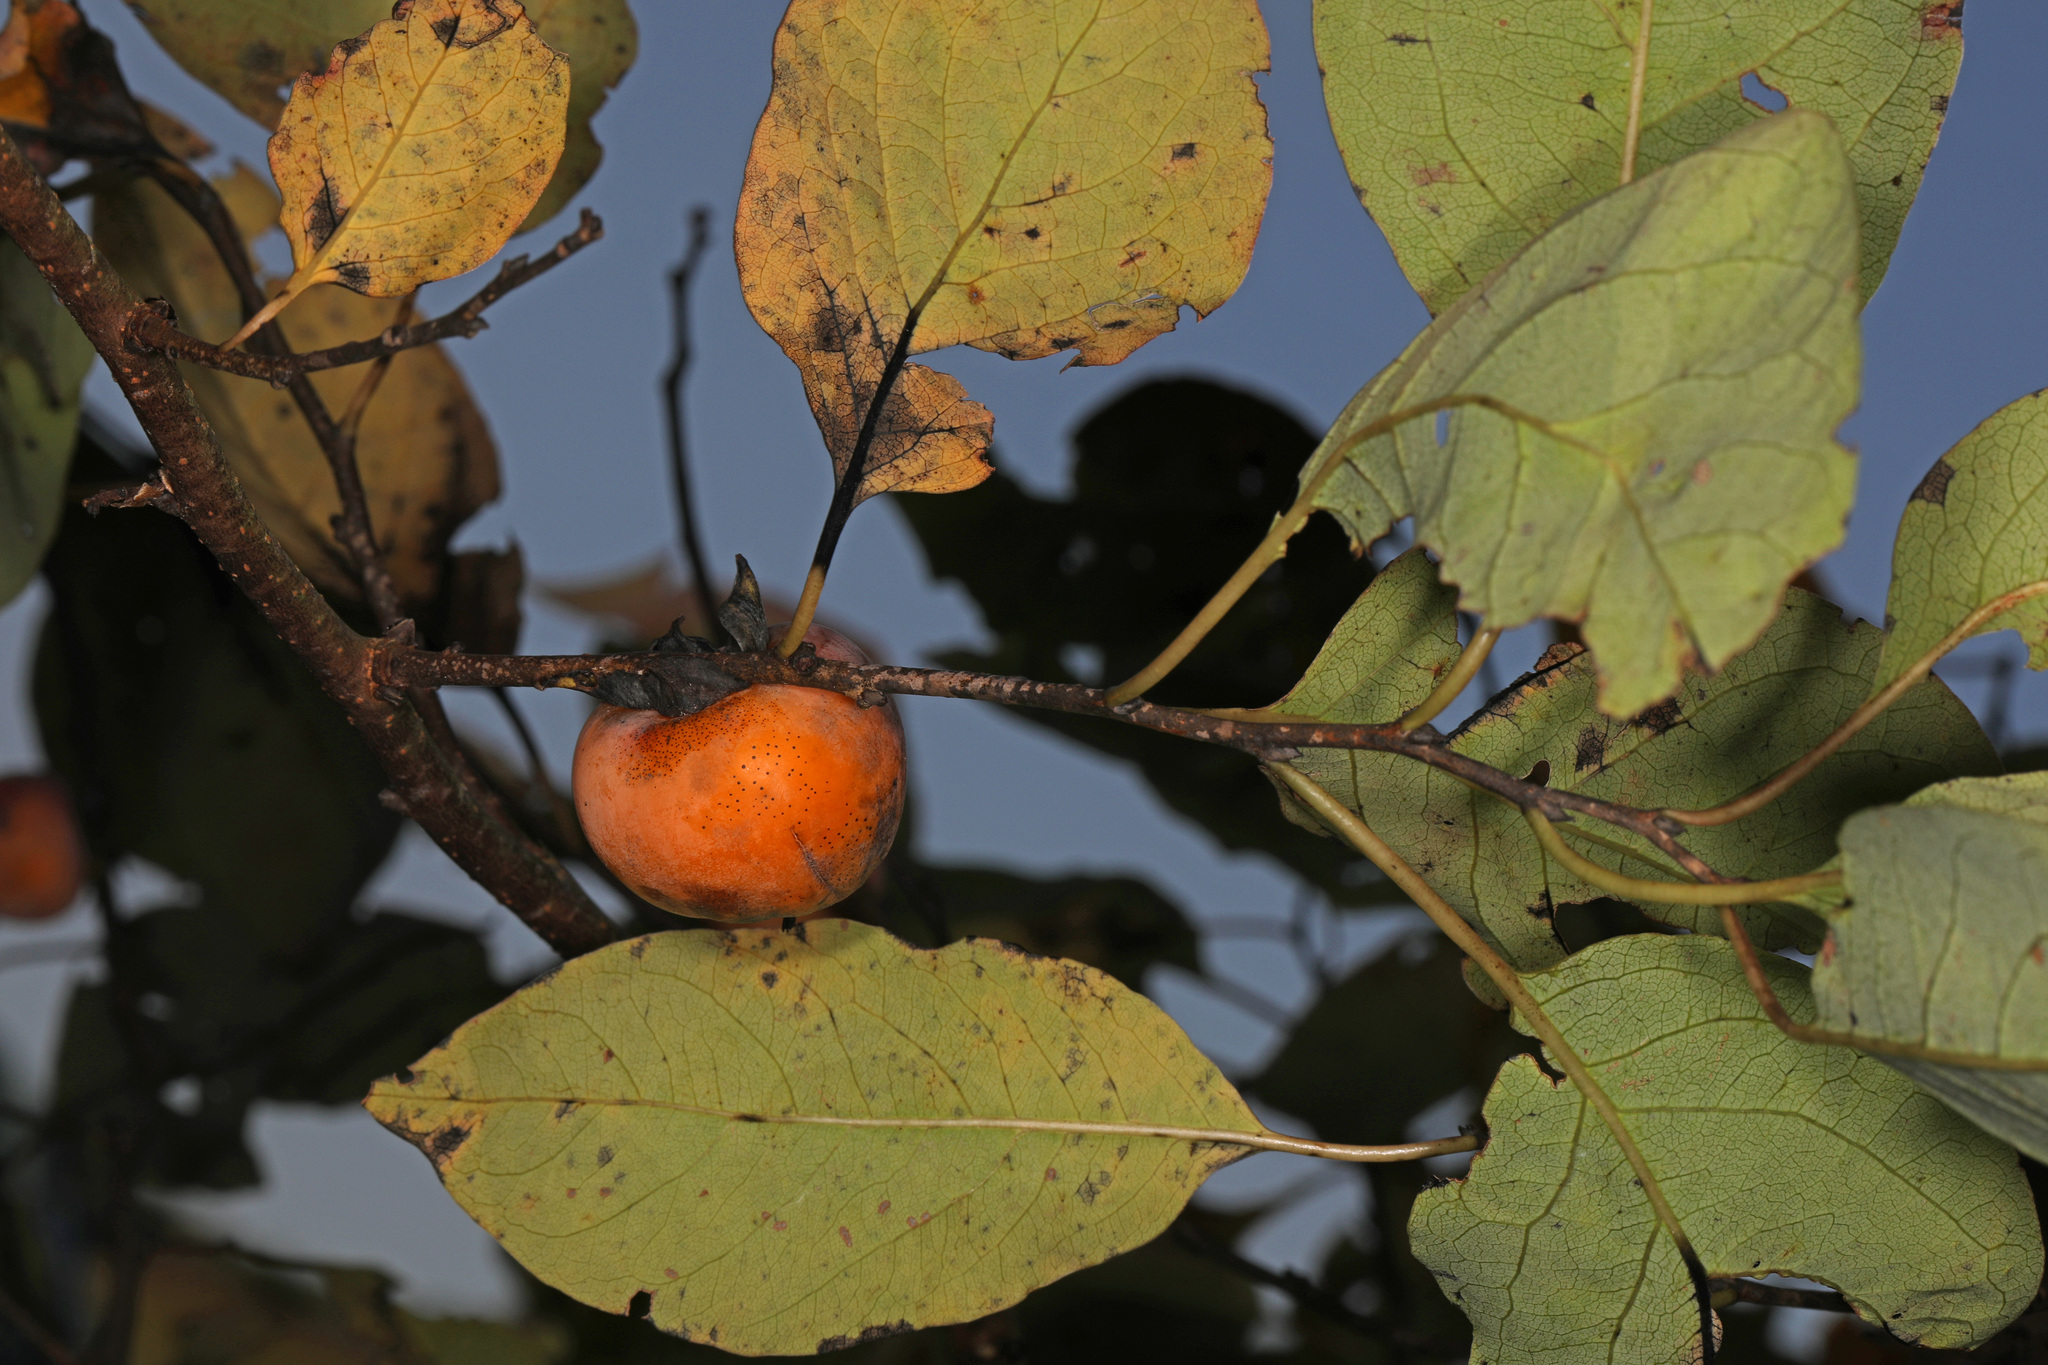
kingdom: Plantae
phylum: Tracheophyta
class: Magnoliopsida
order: Ericales
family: Ebenaceae
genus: Diospyros
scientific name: Diospyros virginiana
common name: Persimmon
